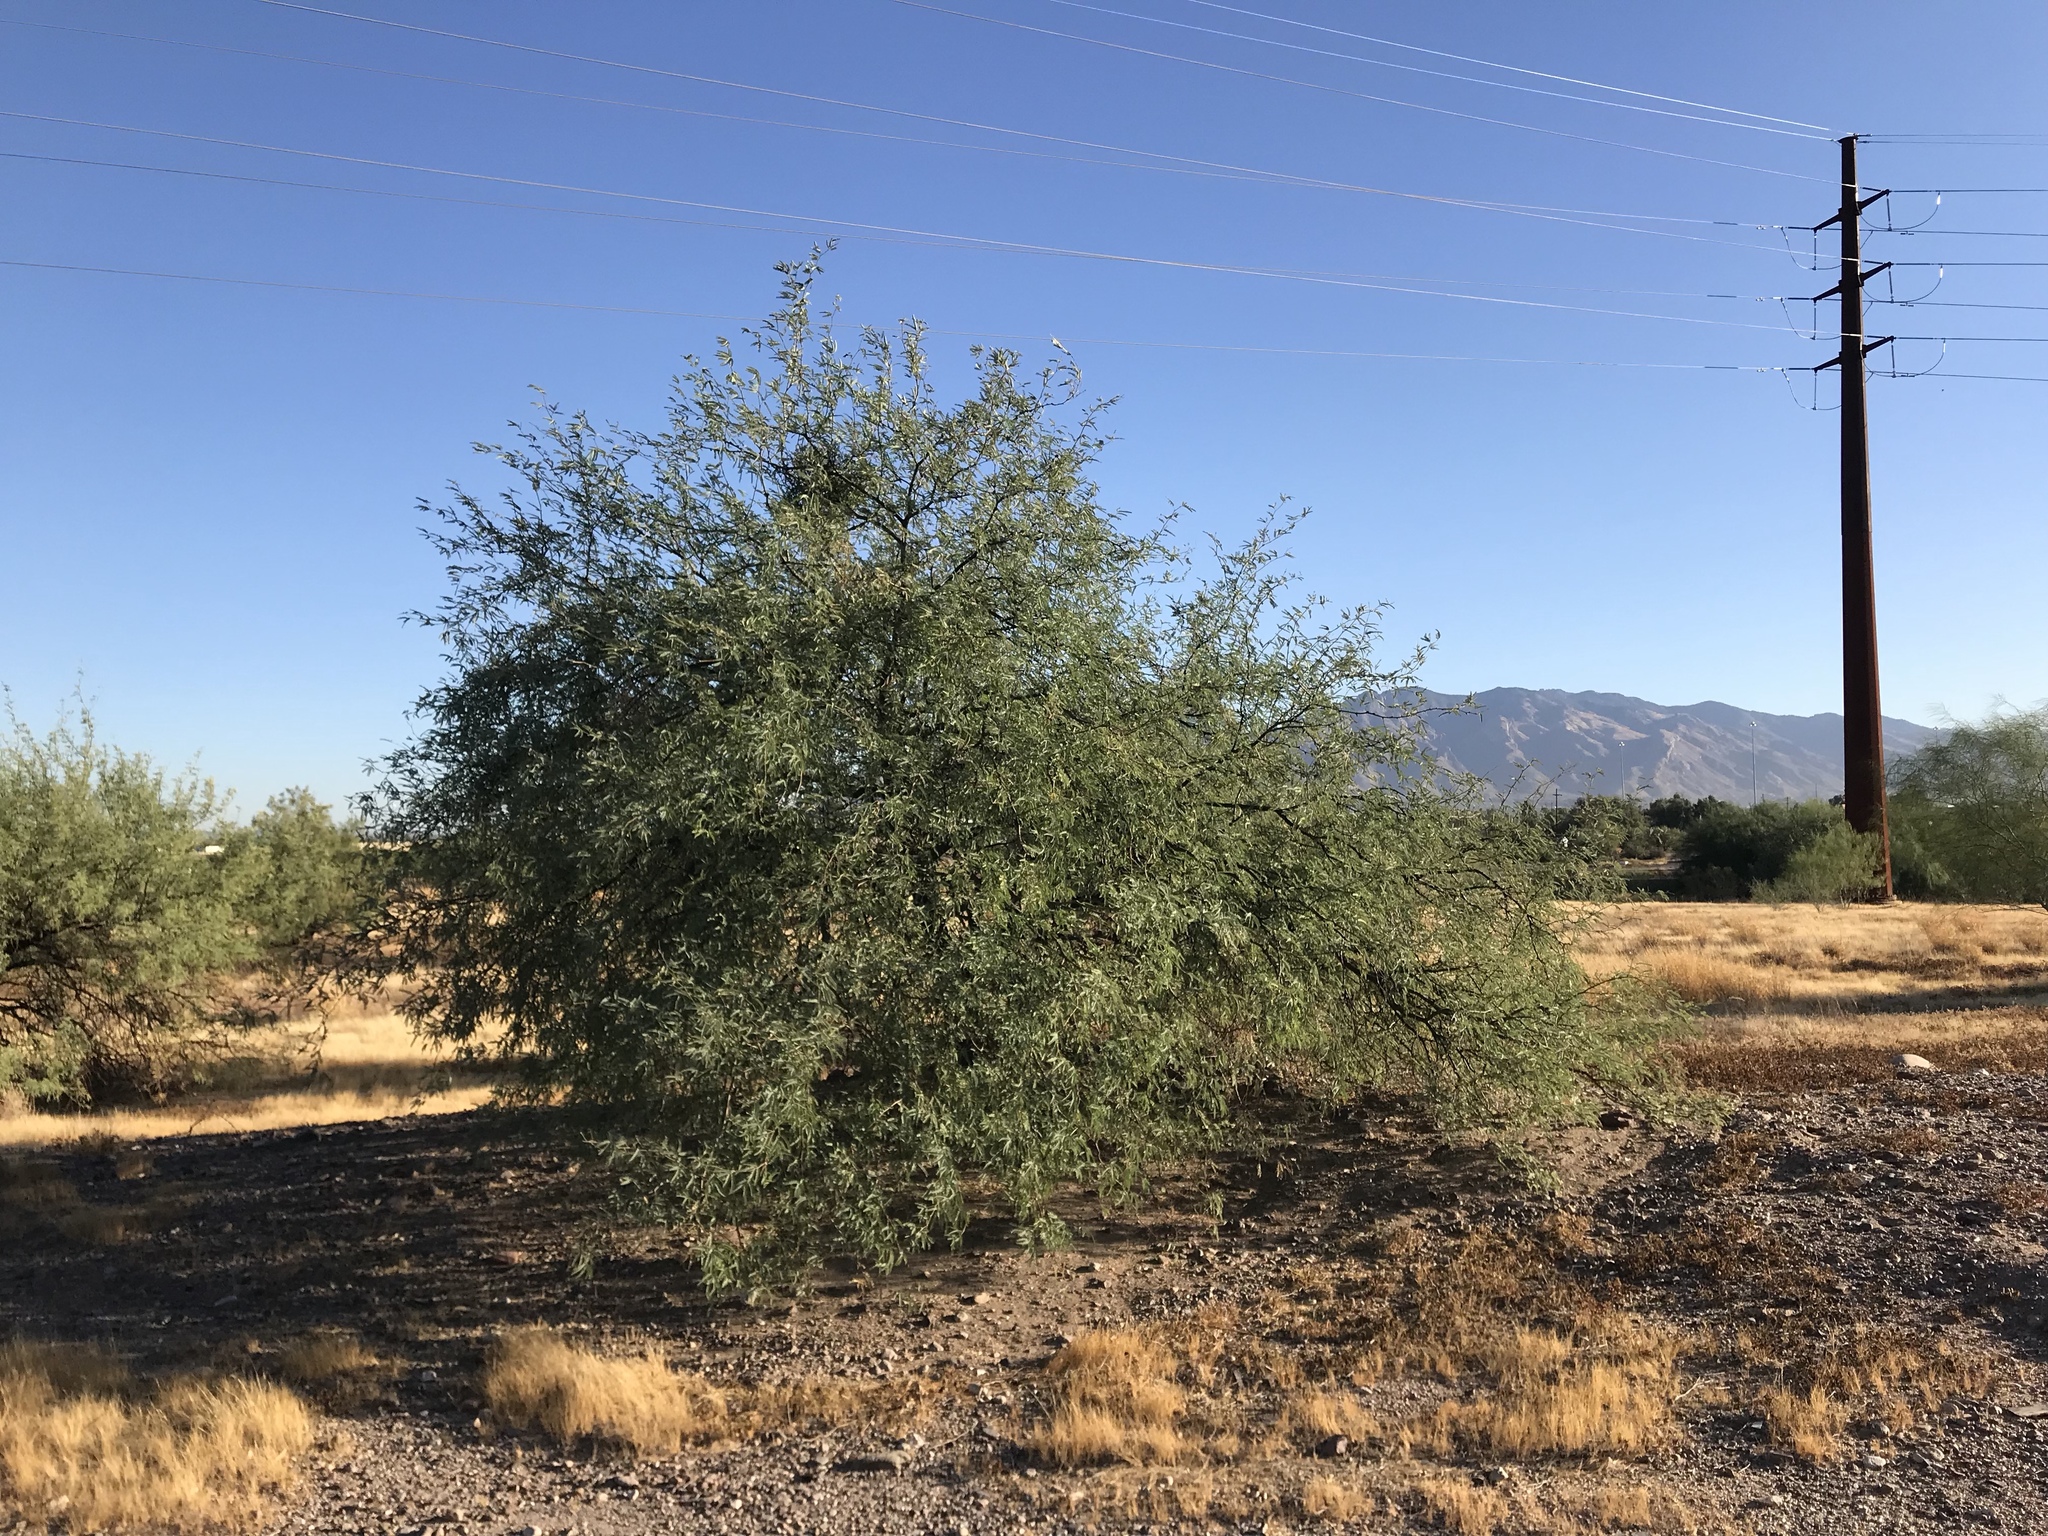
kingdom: Plantae
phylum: Tracheophyta
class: Magnoliopsida
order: Fabales
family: Fabaceae
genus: Prosopis
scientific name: Prosopis velutina
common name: Velvet mesquite
